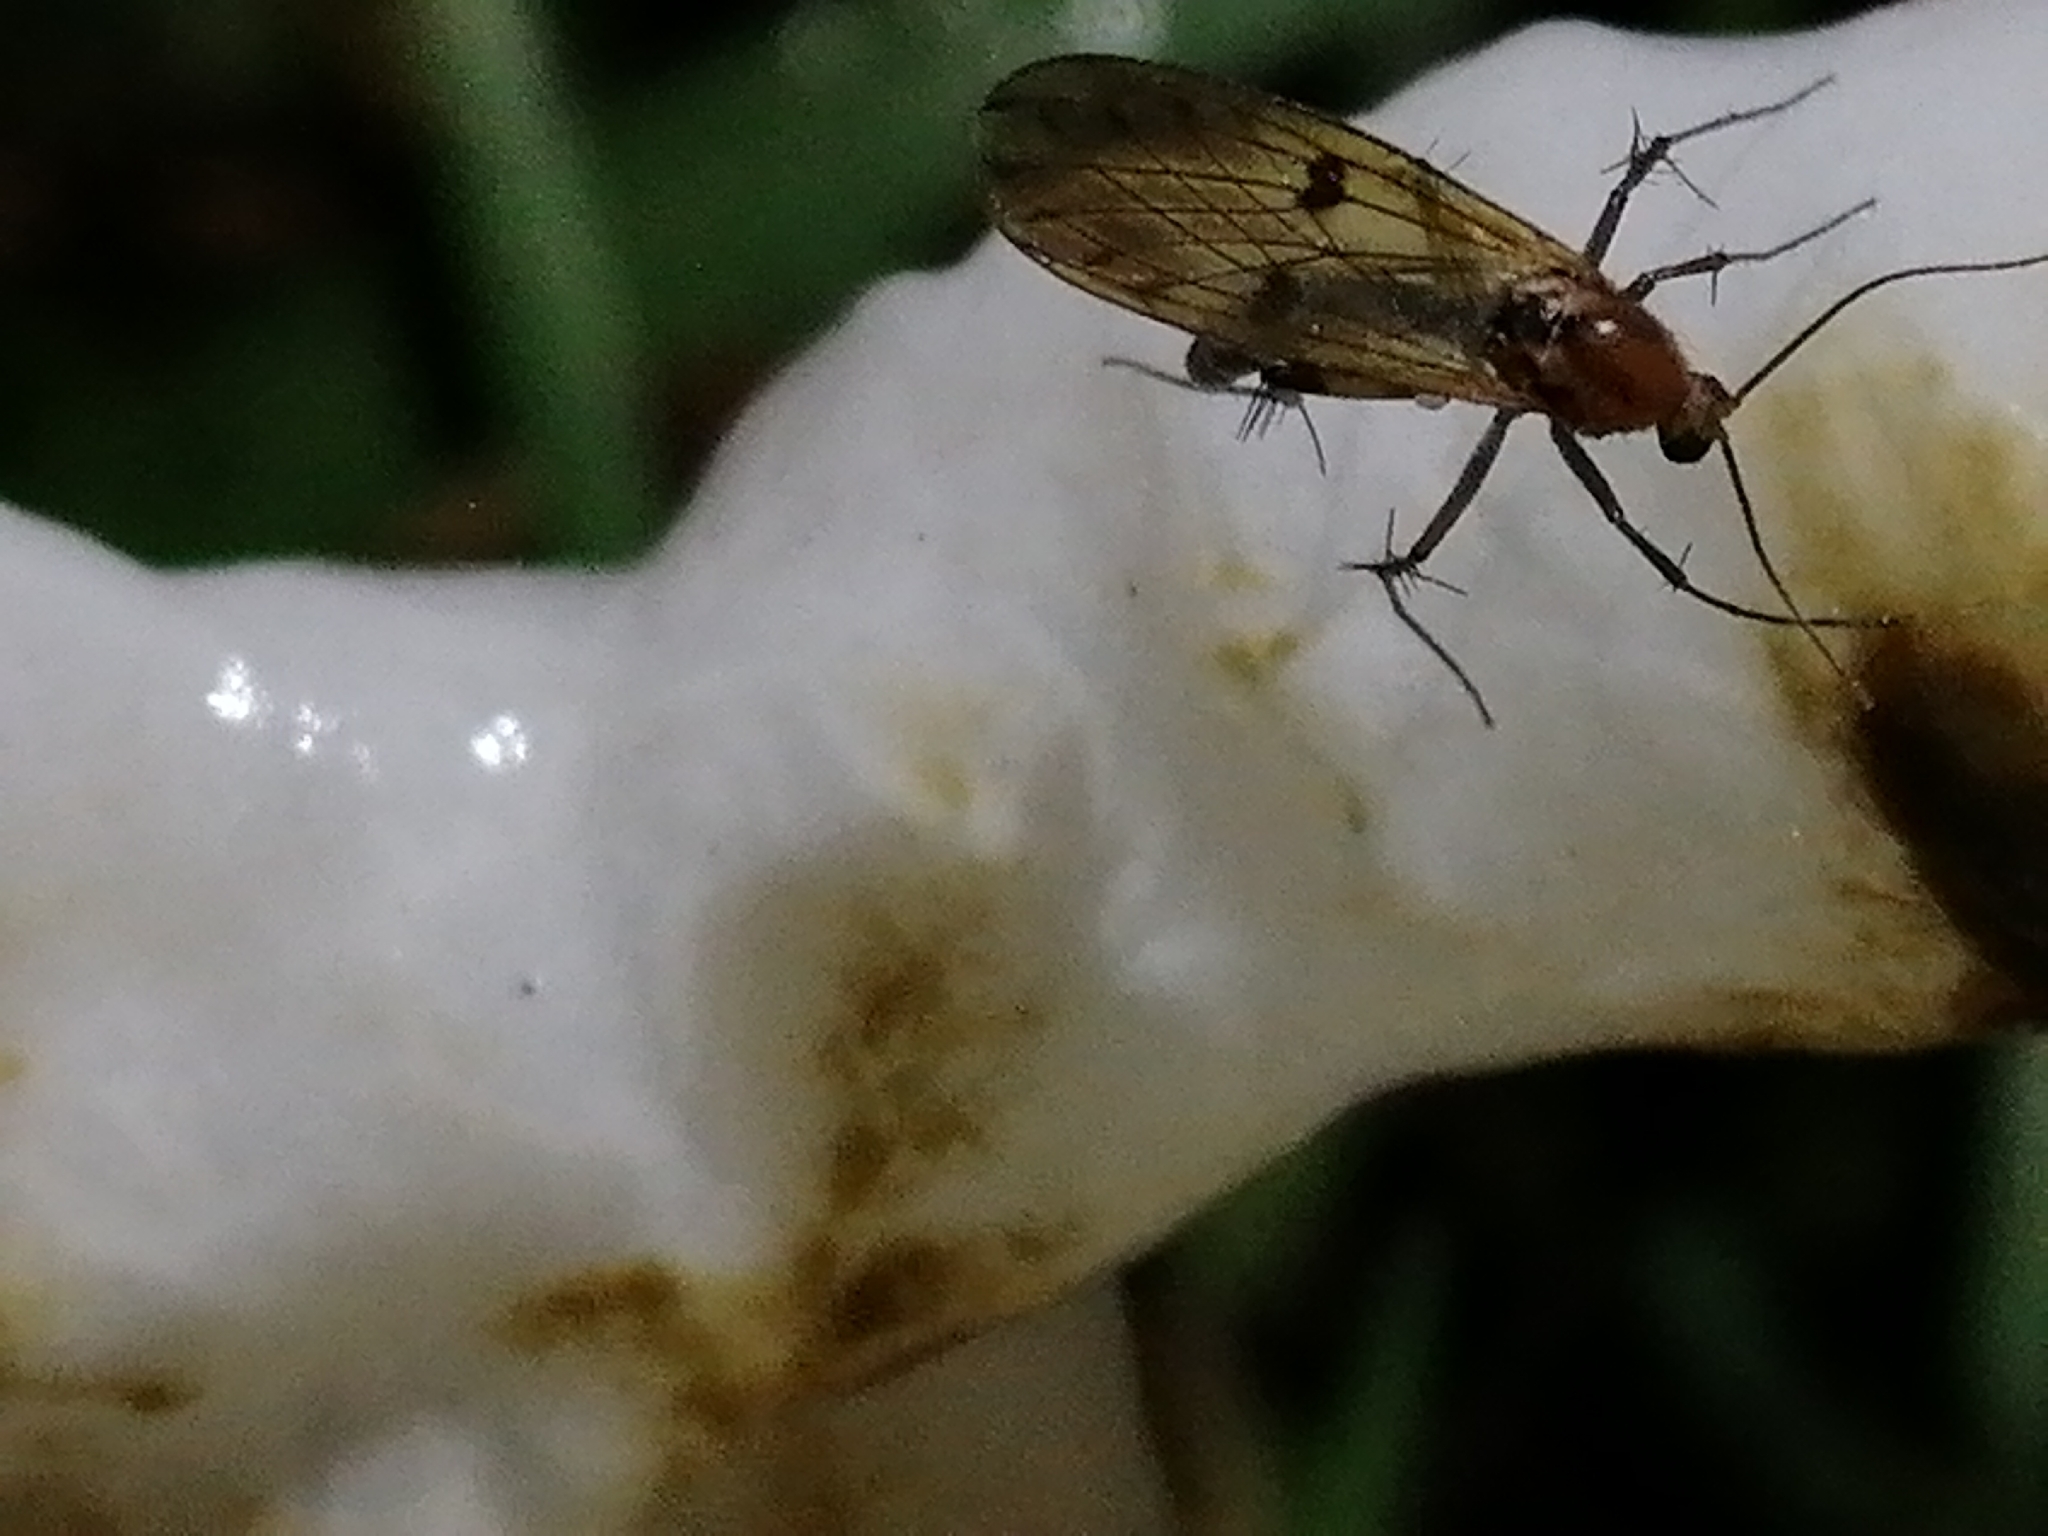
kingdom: Animalia
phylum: Arthropoda
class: Insecta
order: Diptera
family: Mycetophilidae
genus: Mycetophila
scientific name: Mycetophila marginepunctata
